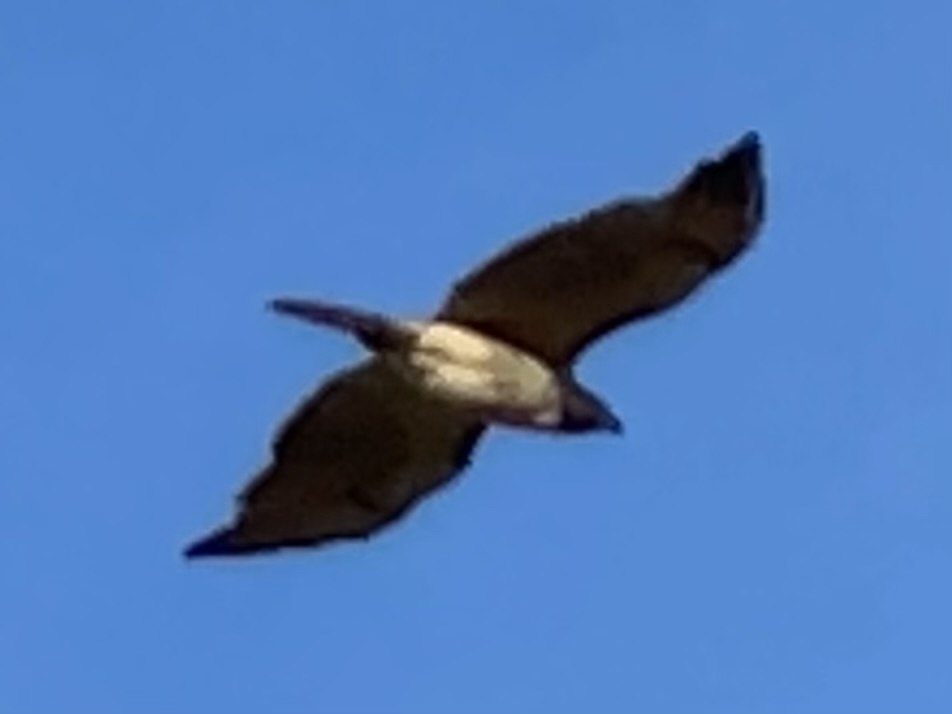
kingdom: Animalia
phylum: Chordata
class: Aves
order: Accipitriformes
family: Accipitridae
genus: Buteo
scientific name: Buteo jamaicensis
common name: Red-tailed hawk
